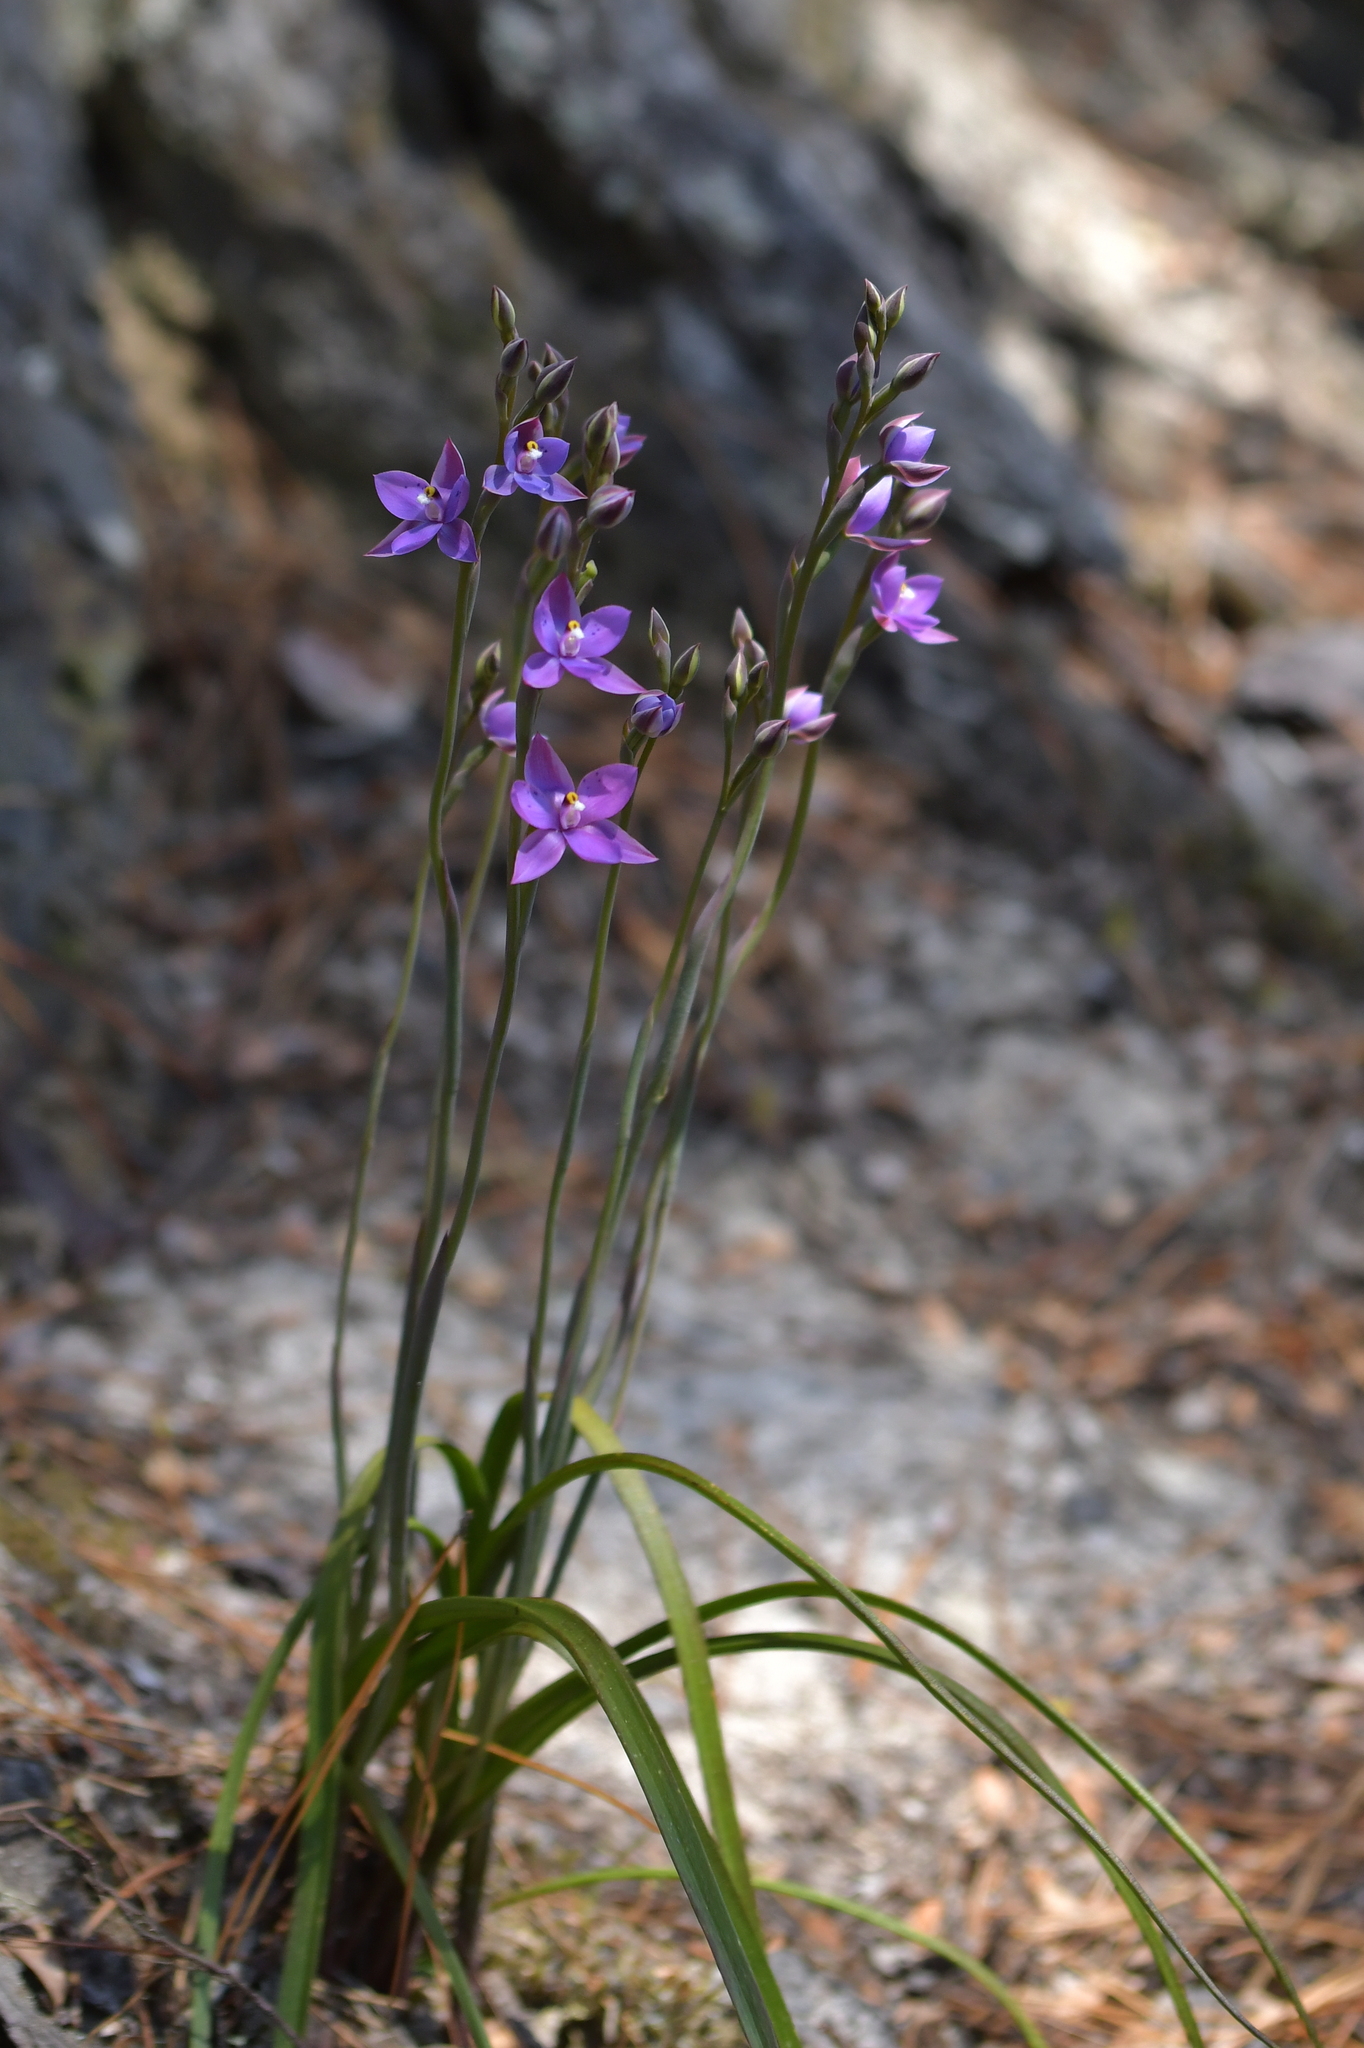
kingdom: Plantae
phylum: Tracheophyta
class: Liliopsida
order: Asparagales
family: Orchidaceae
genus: Thelymitra
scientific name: Thelymitra nervosa
